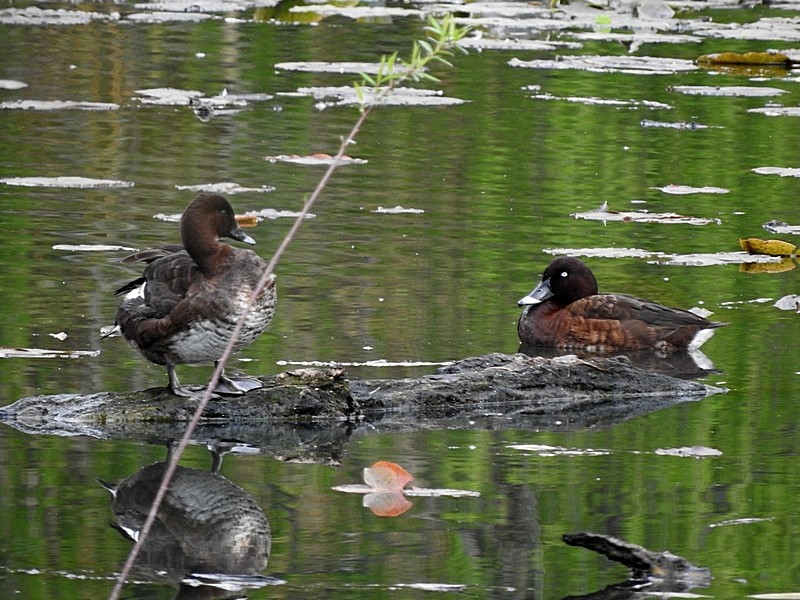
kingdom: Animalia
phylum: Chordata
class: Aves
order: Anseriformes
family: Anatidae
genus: Aythya
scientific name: Aythya australis
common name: Hardhead
